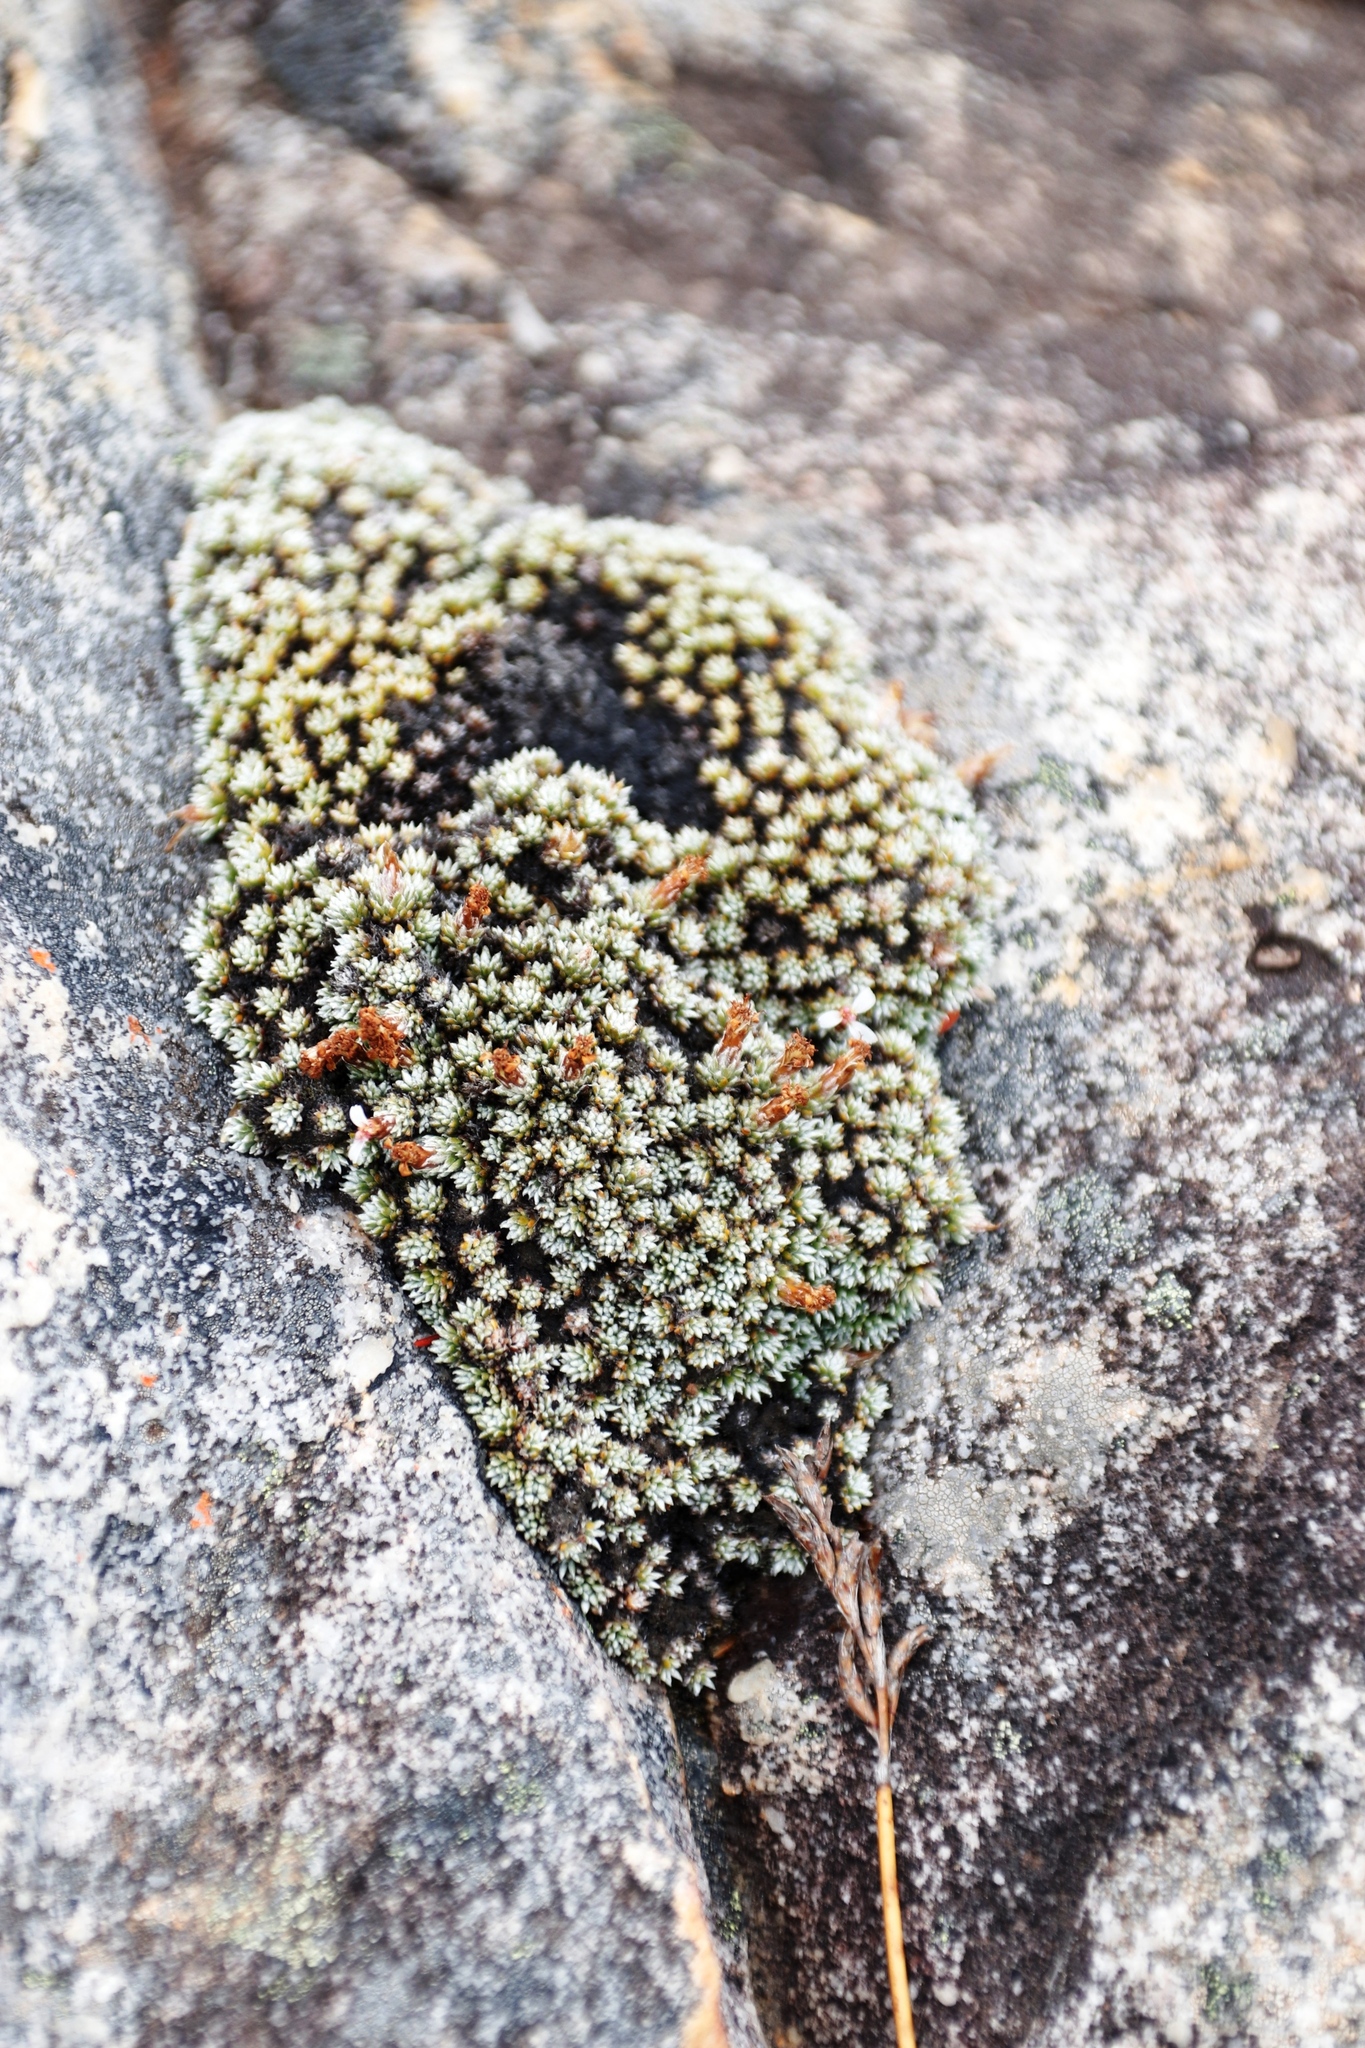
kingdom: Plantae
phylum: Tracheophyta
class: Magnoliopsida
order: Asterales
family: Asteraceae
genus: Muscosomorphe
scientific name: Muscosomorphe aretioides
